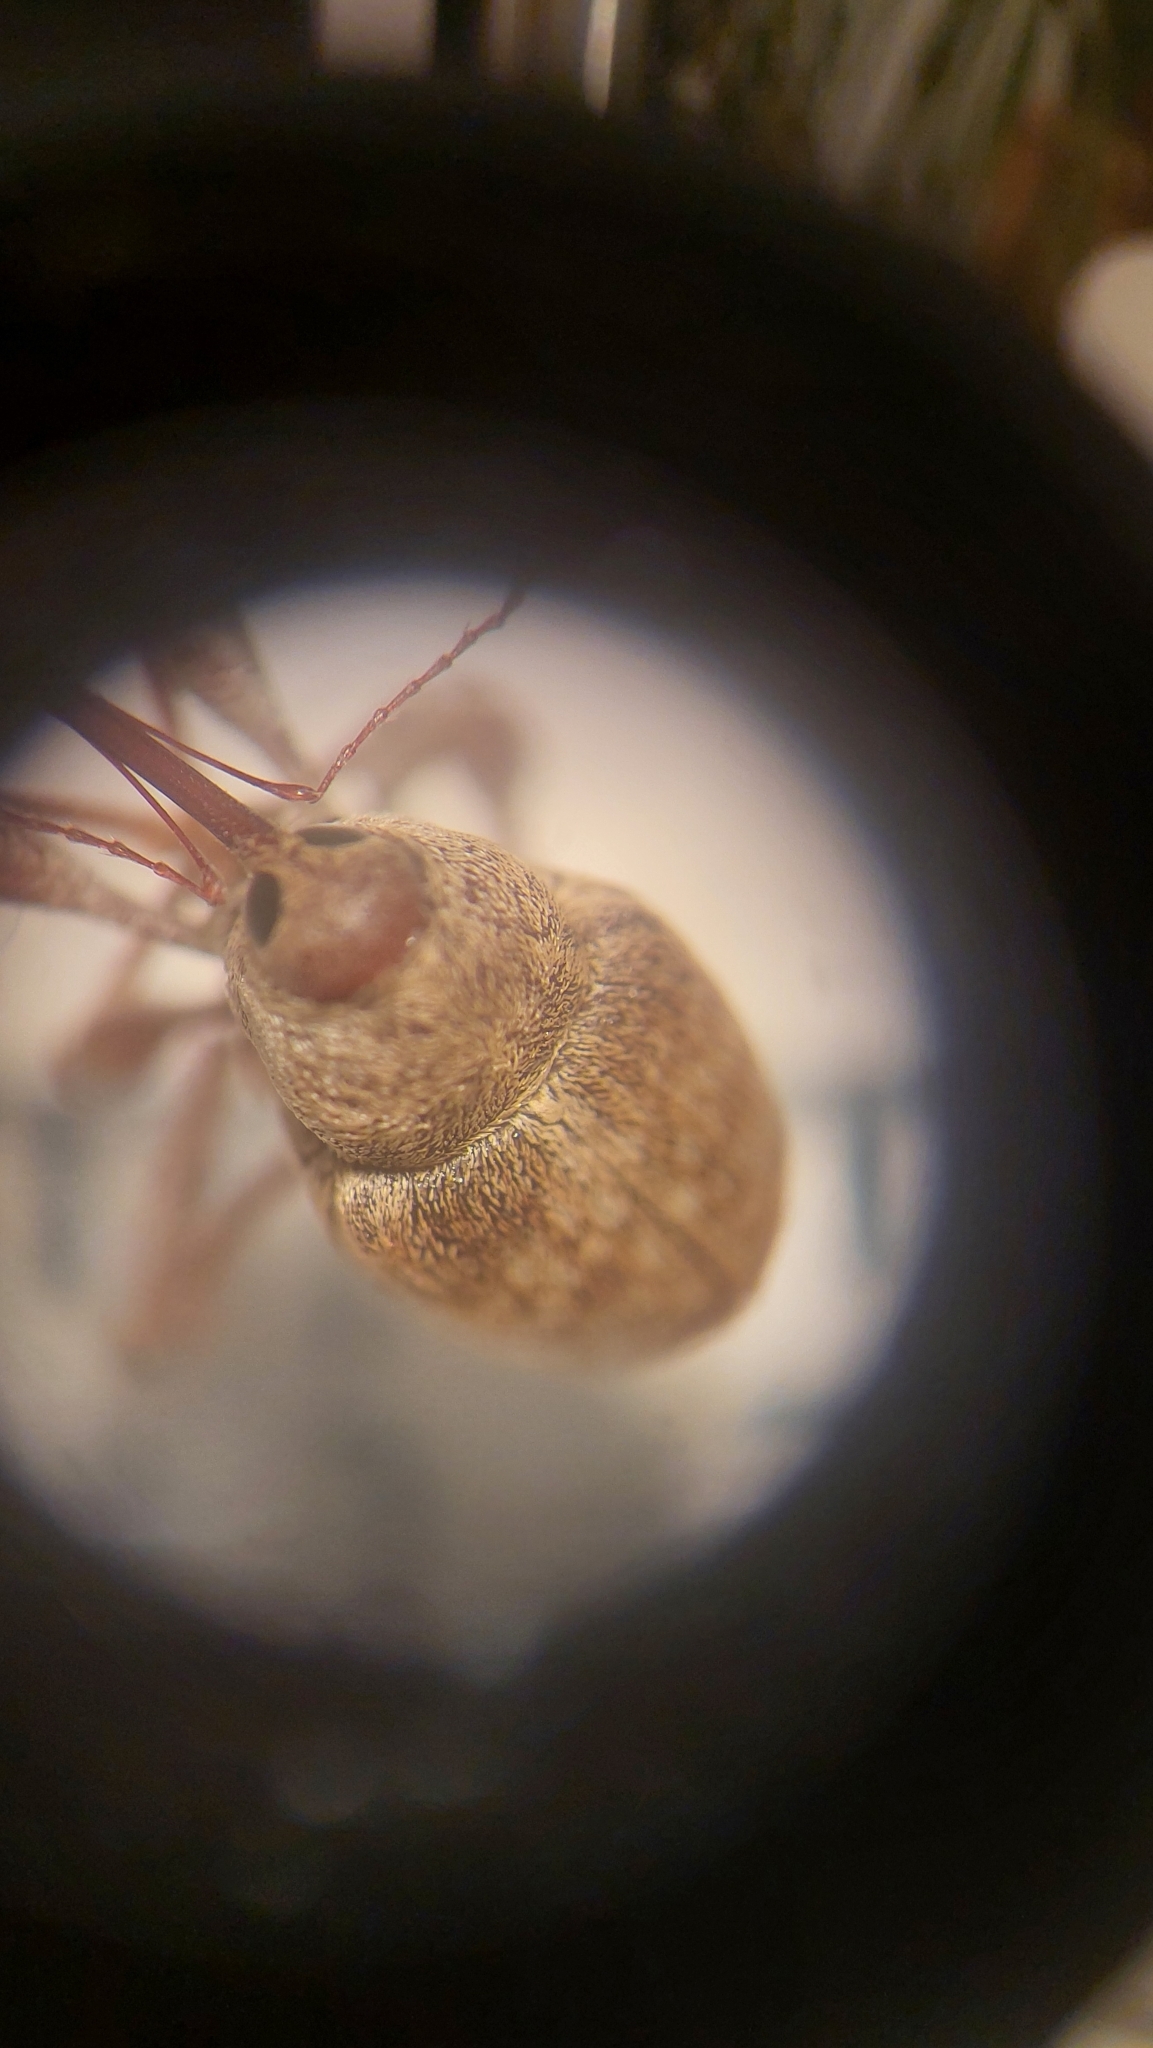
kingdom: Animalia
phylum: Arthropoda
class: Insecta
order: Coleoptera
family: Curculionidae
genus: Curculio
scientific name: Curculio pellitus
